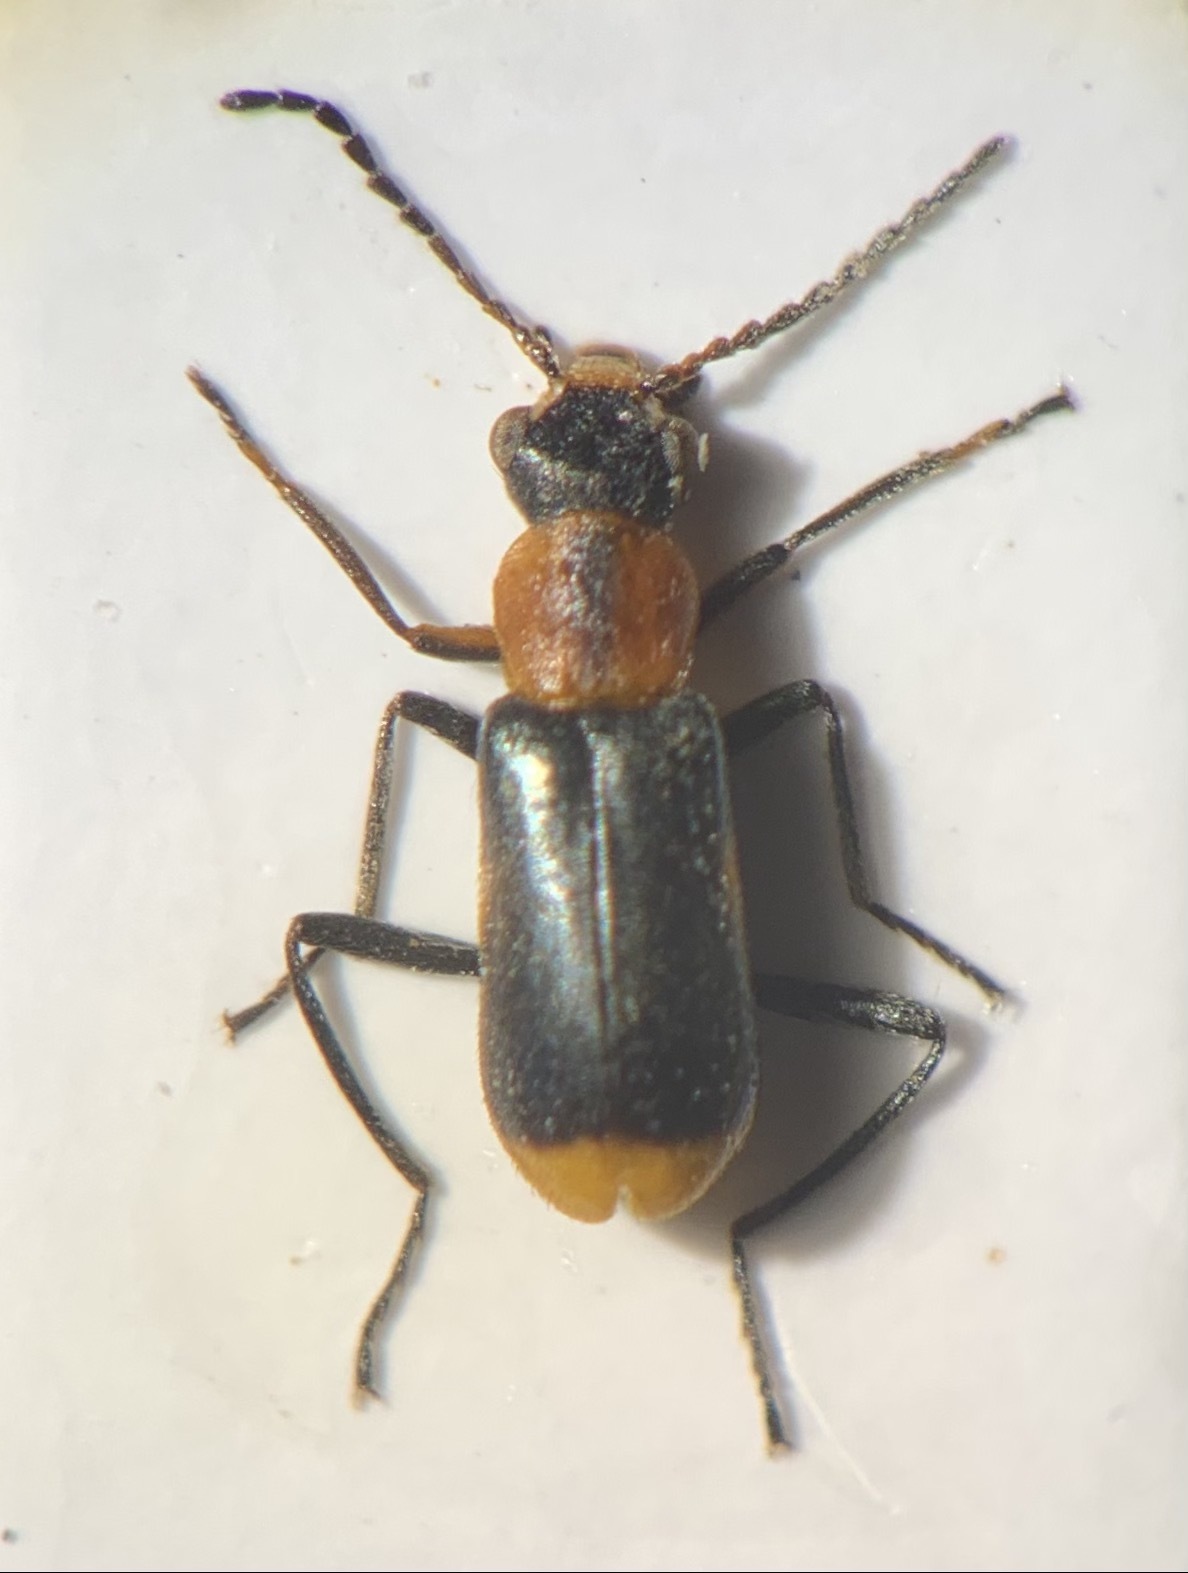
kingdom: Animalia
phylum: Arthropoda
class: Insecta
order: Coleoptera
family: Malachiidae
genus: Attalus
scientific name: Attalus minimus
